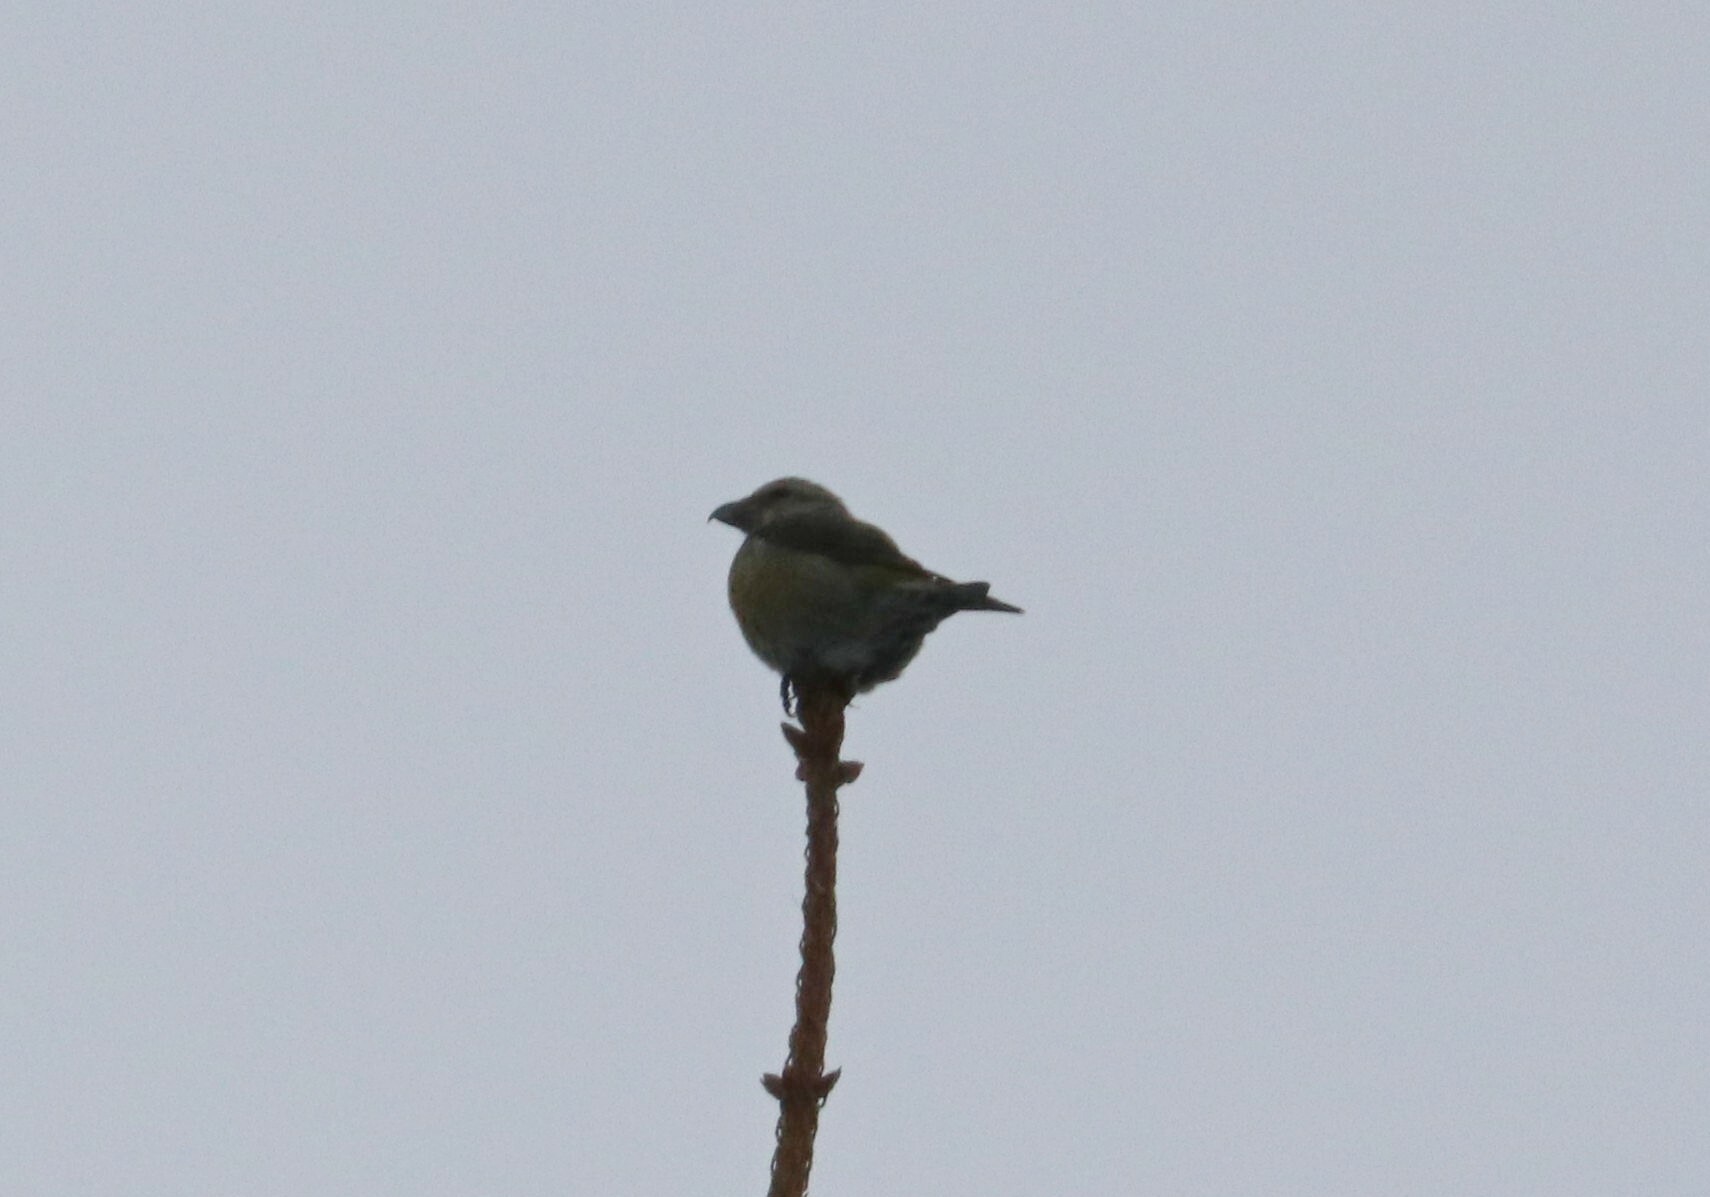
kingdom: Animalia
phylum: Chordata
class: Aves
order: Passeriformes
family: Fringillidae
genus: Loxia
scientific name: Loxia curvirostra
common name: Red crossbill
